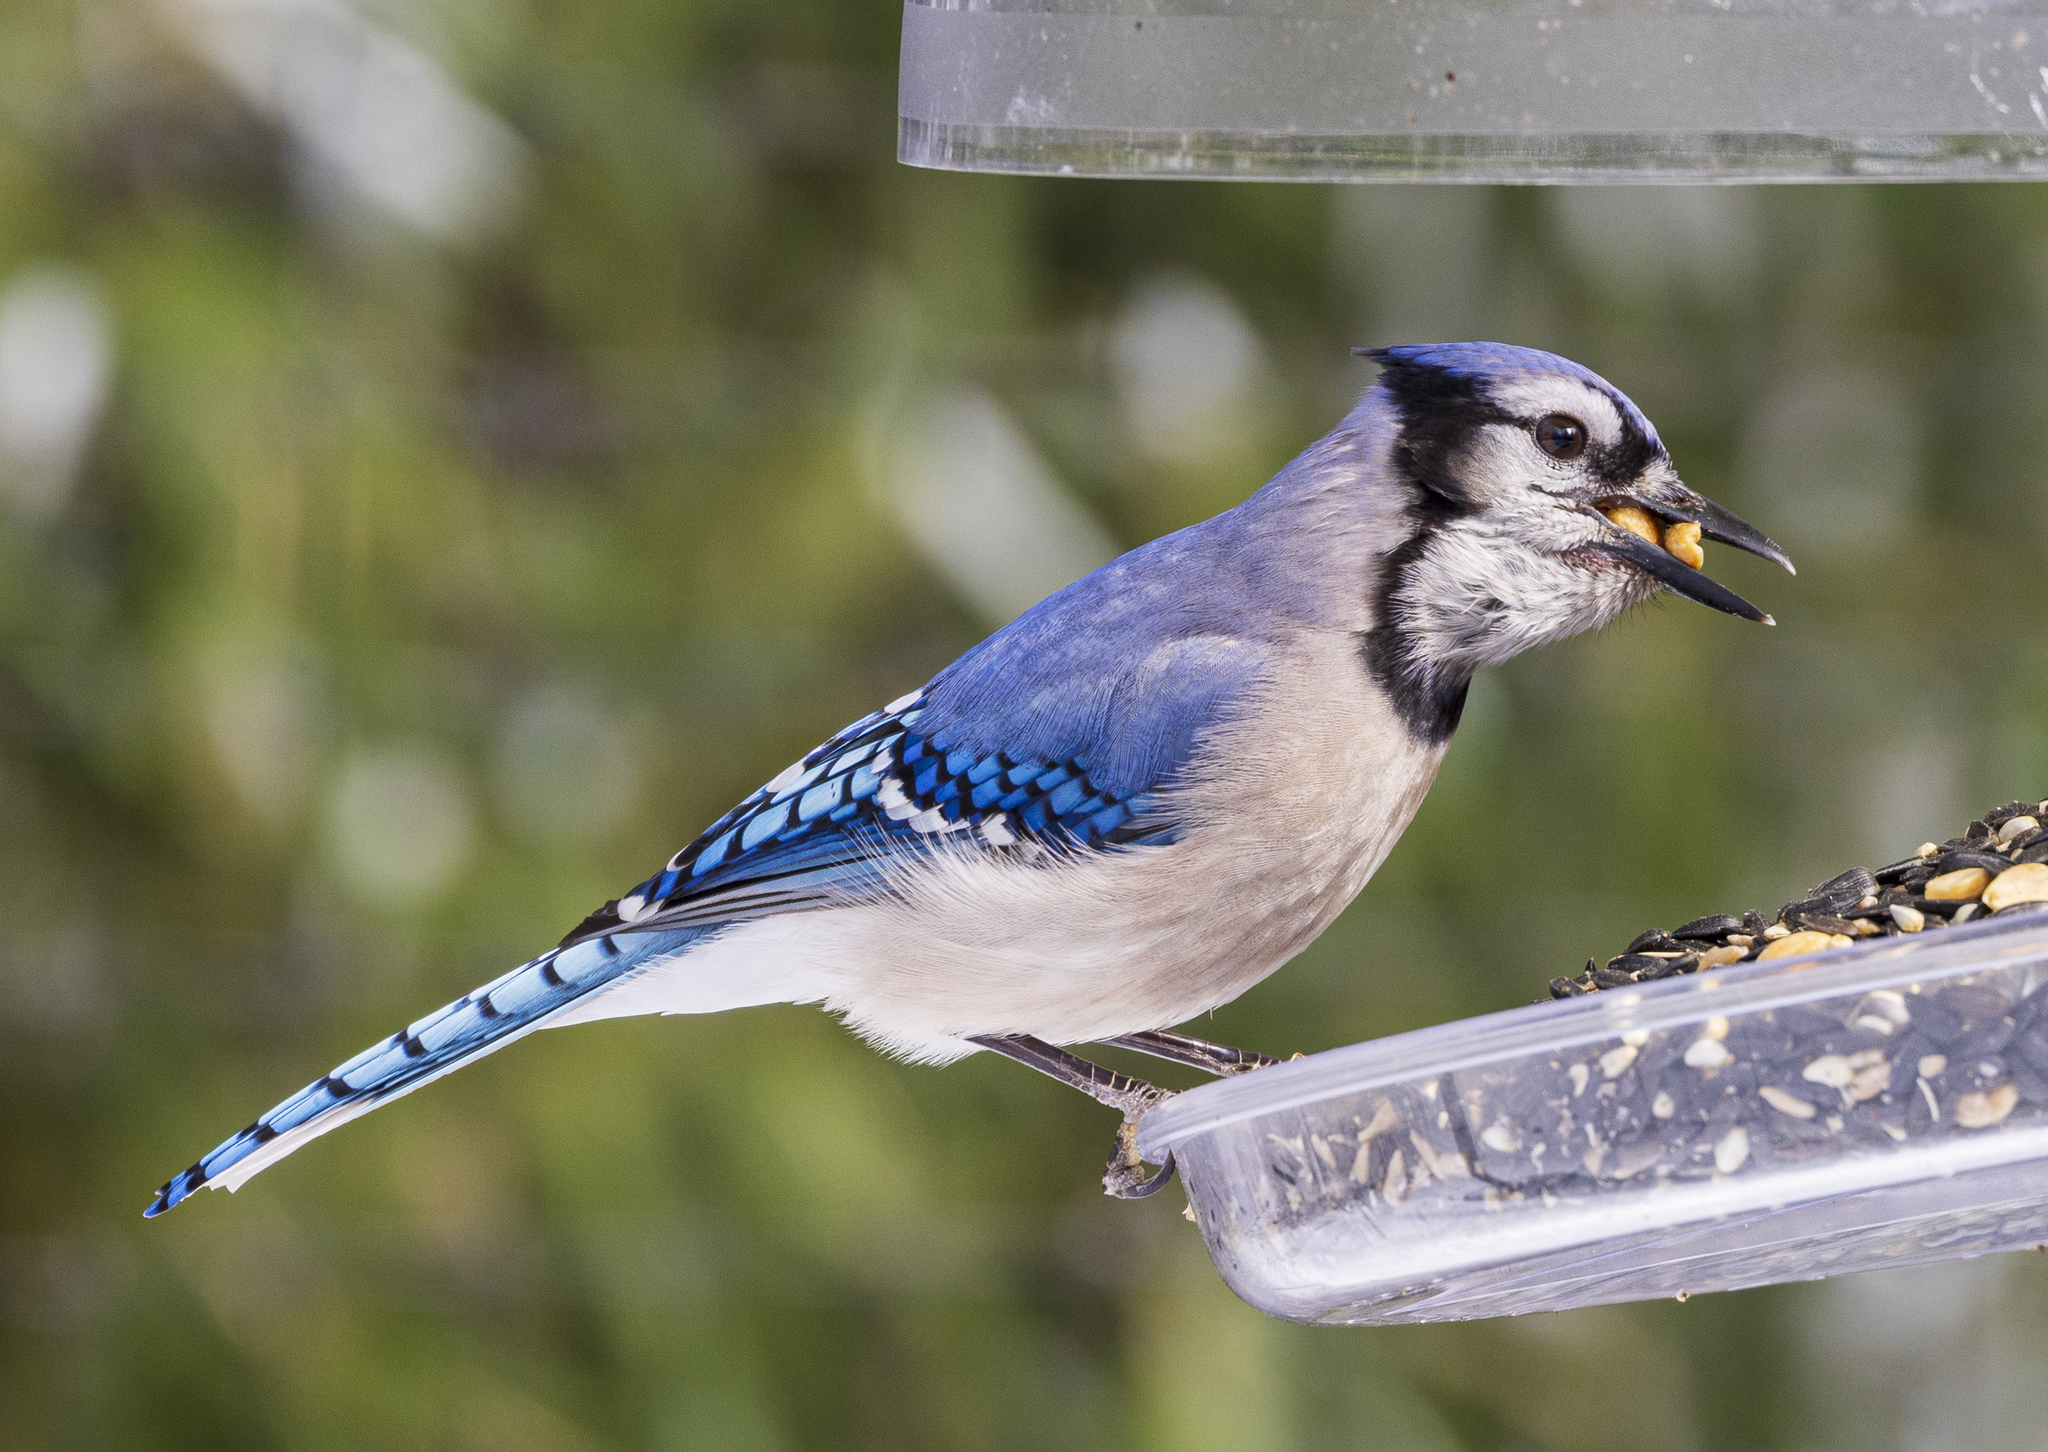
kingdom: Animalia
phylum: Chordata
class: Aves
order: Passeriformes
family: Corvidae
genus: Cyanocitta
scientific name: Cyanocitta cristata
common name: Blue jay
